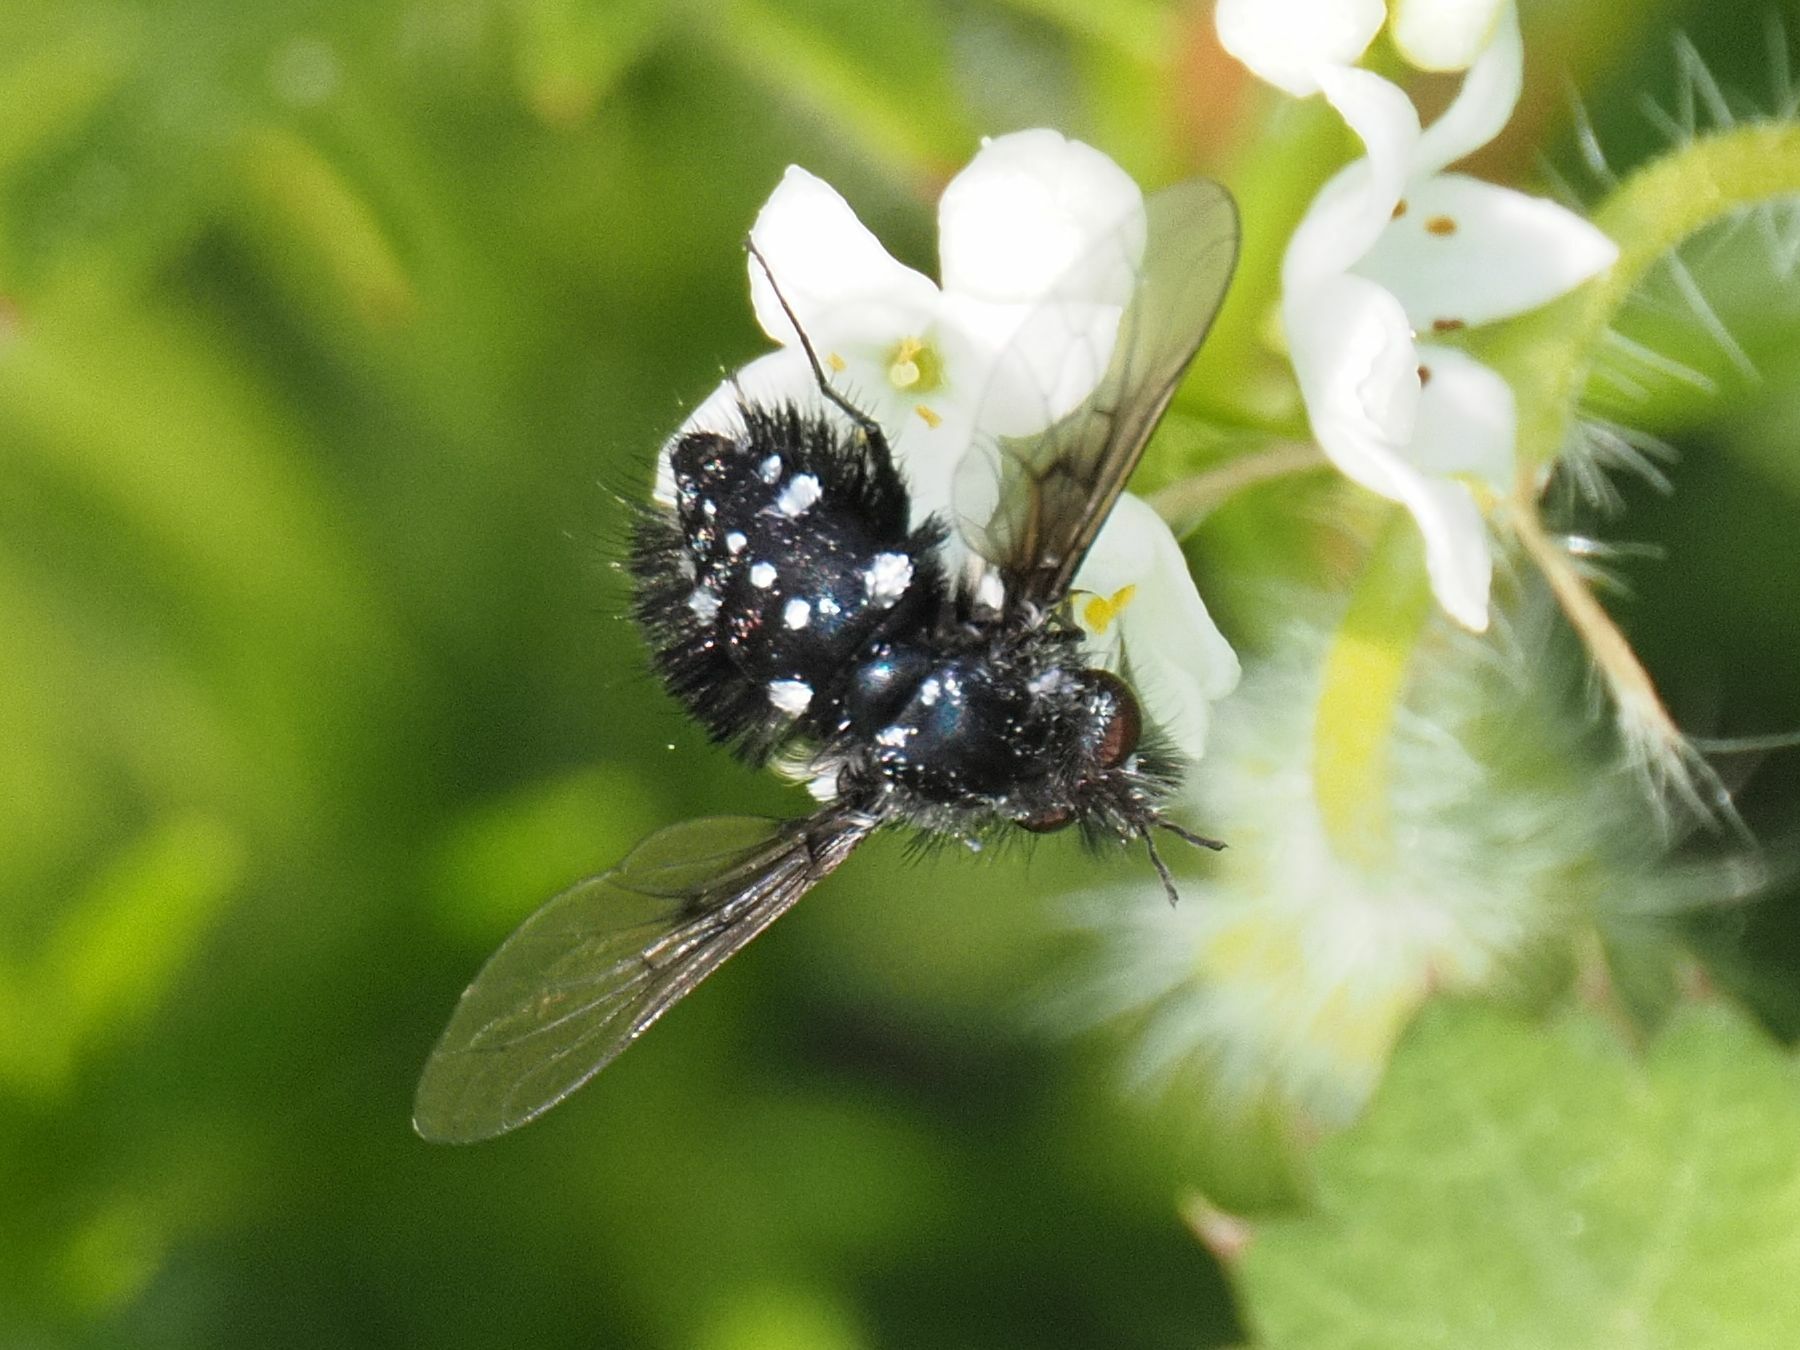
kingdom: Animalia
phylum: Arthropoda
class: Insecta
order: Diptera
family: Bombyliidae
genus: Bombylella
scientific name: Bombylella atra
